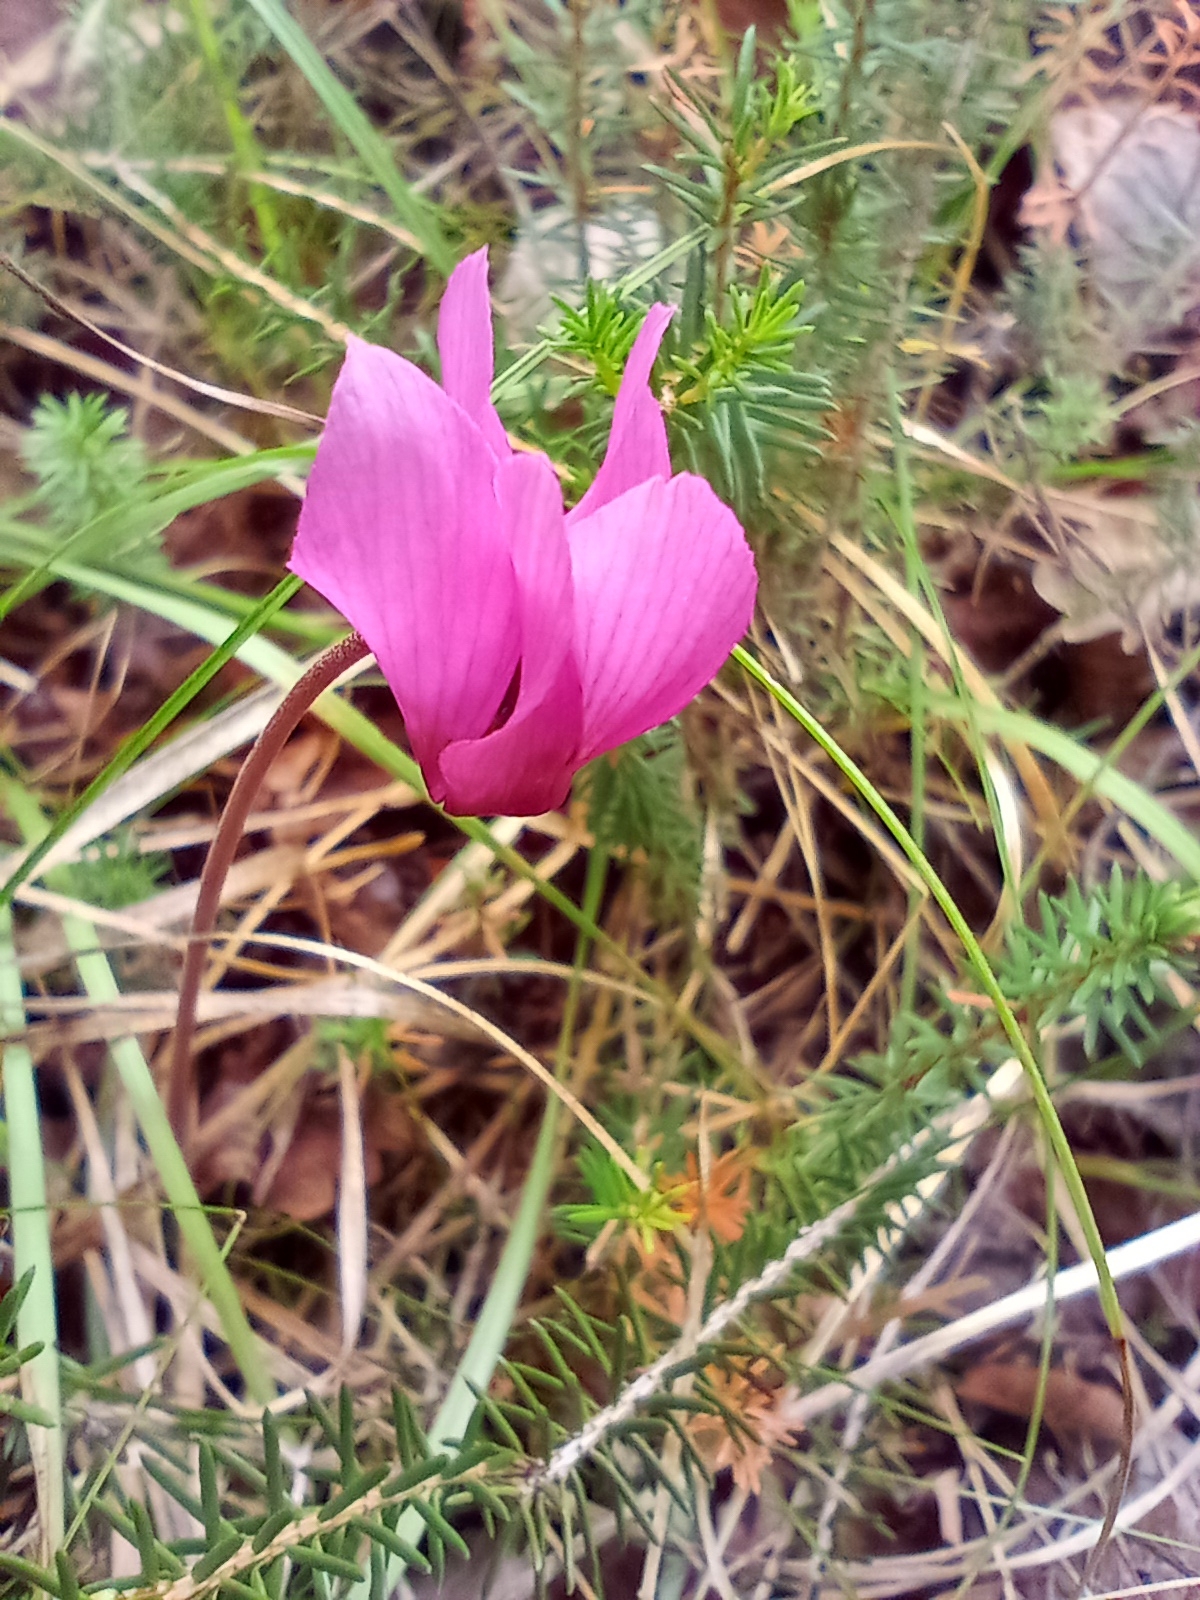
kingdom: Plantae
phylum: Tracheophyta
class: Magnoliopsida
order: Ericales
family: Primulaceae
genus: Cyclamen
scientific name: Cyclamen purpurascens
